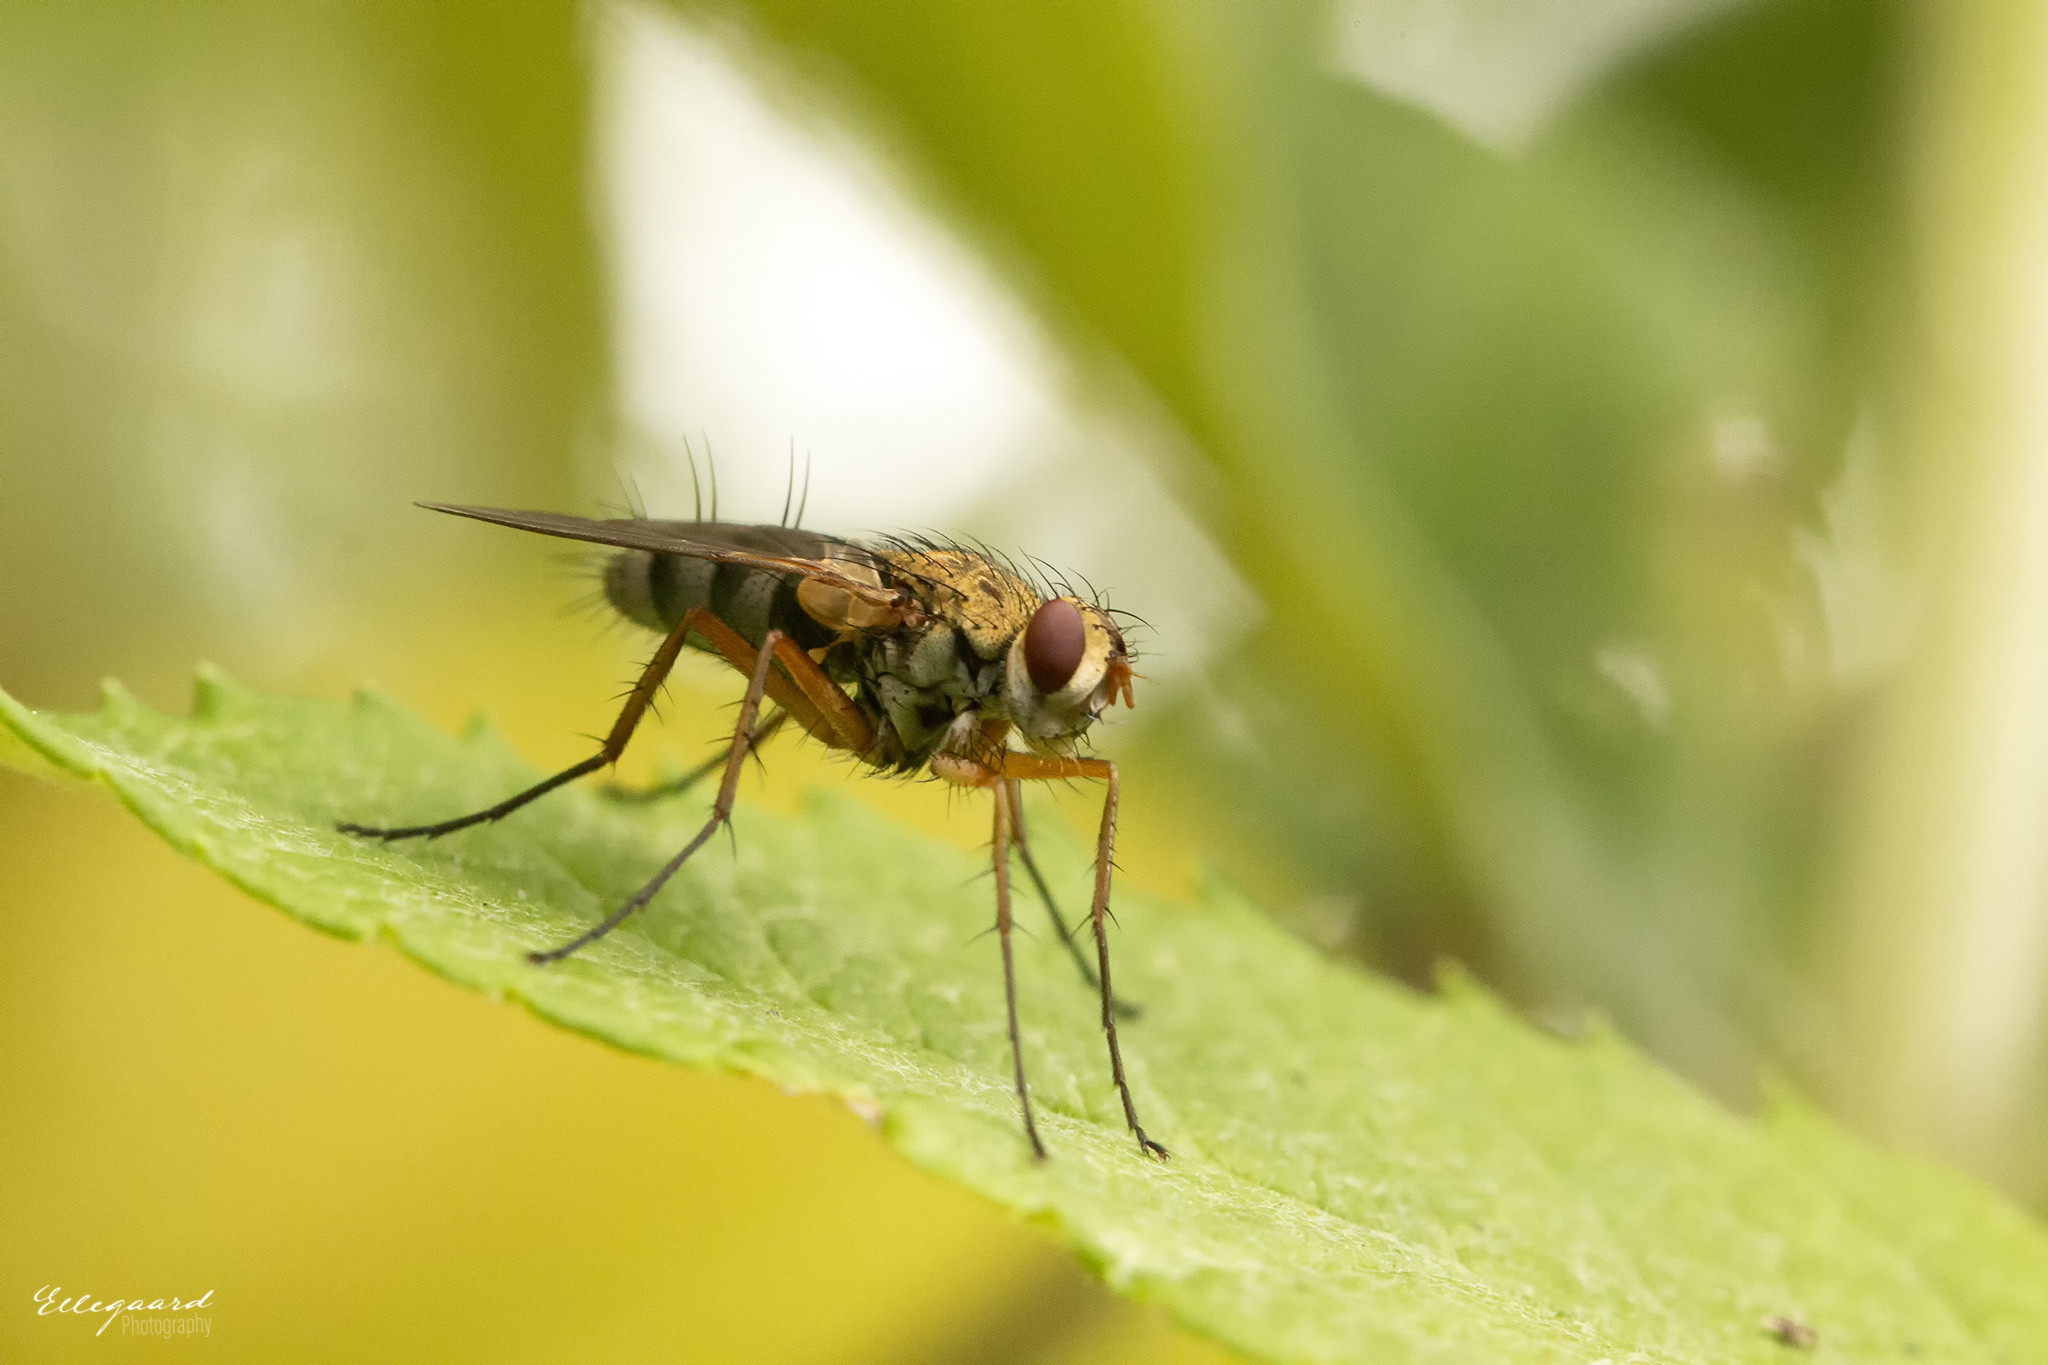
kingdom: Animalia
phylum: Arthropoda
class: Insecta
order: Diptera
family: Tachinidae
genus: Dexiosoma
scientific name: Dexiosoma caninum
